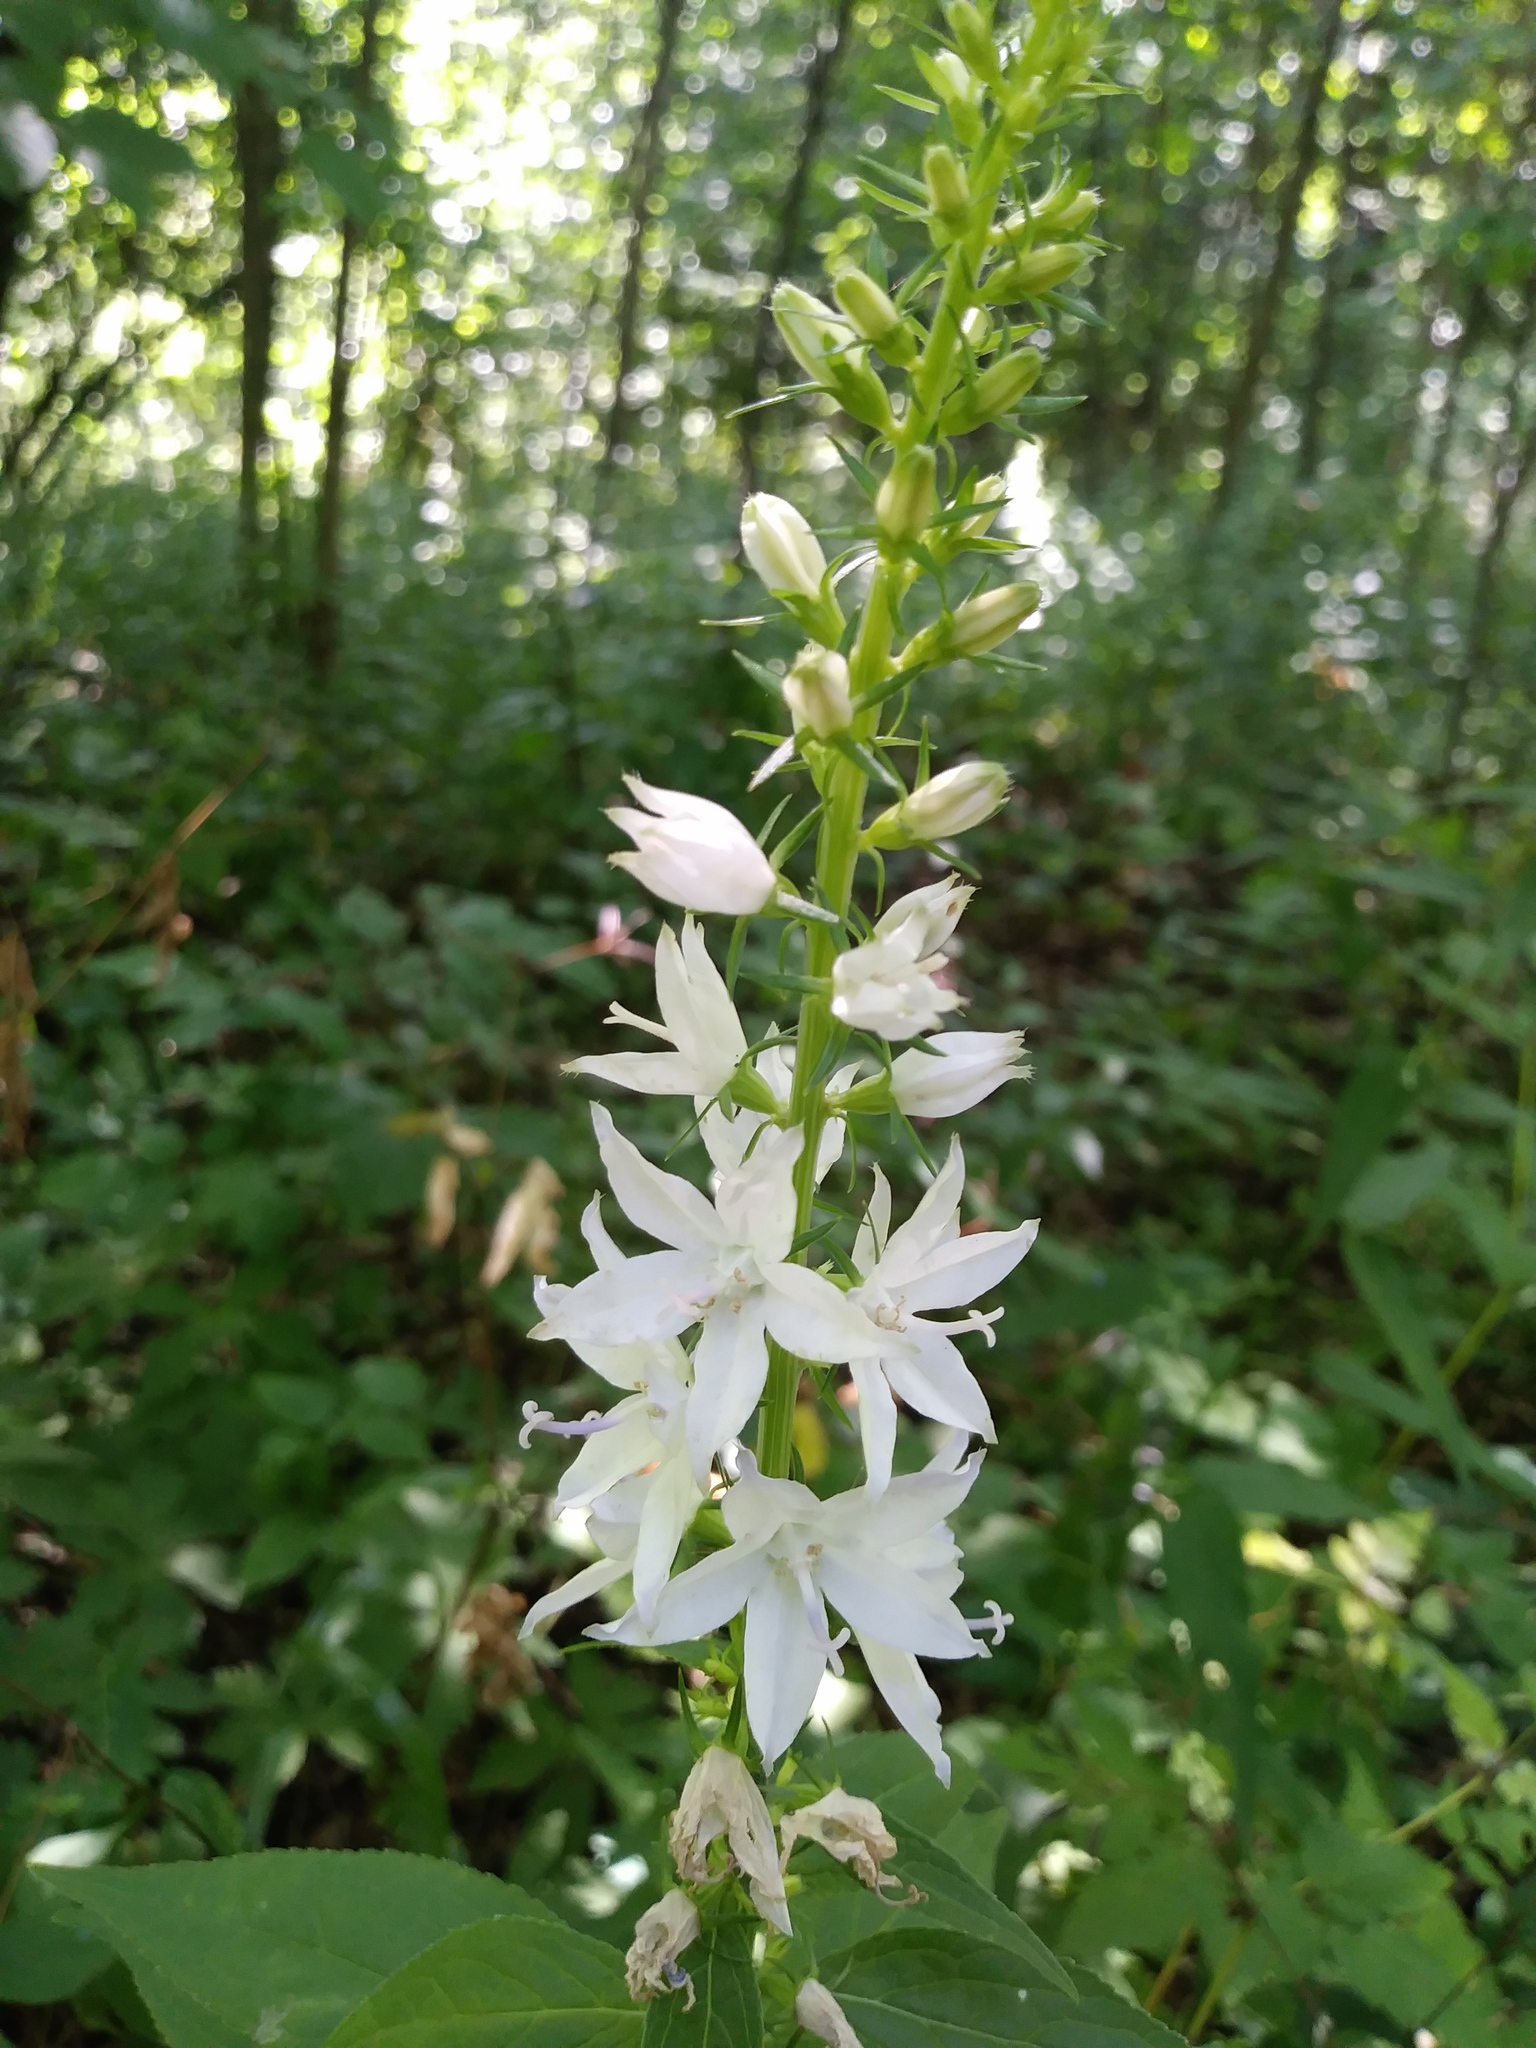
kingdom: Plantae
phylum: Tracheophyta
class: Magnoliopsida
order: Asterales
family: Campanulaceae
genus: Campanulastrum
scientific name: Campanulastrum americanum
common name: American bellflower
